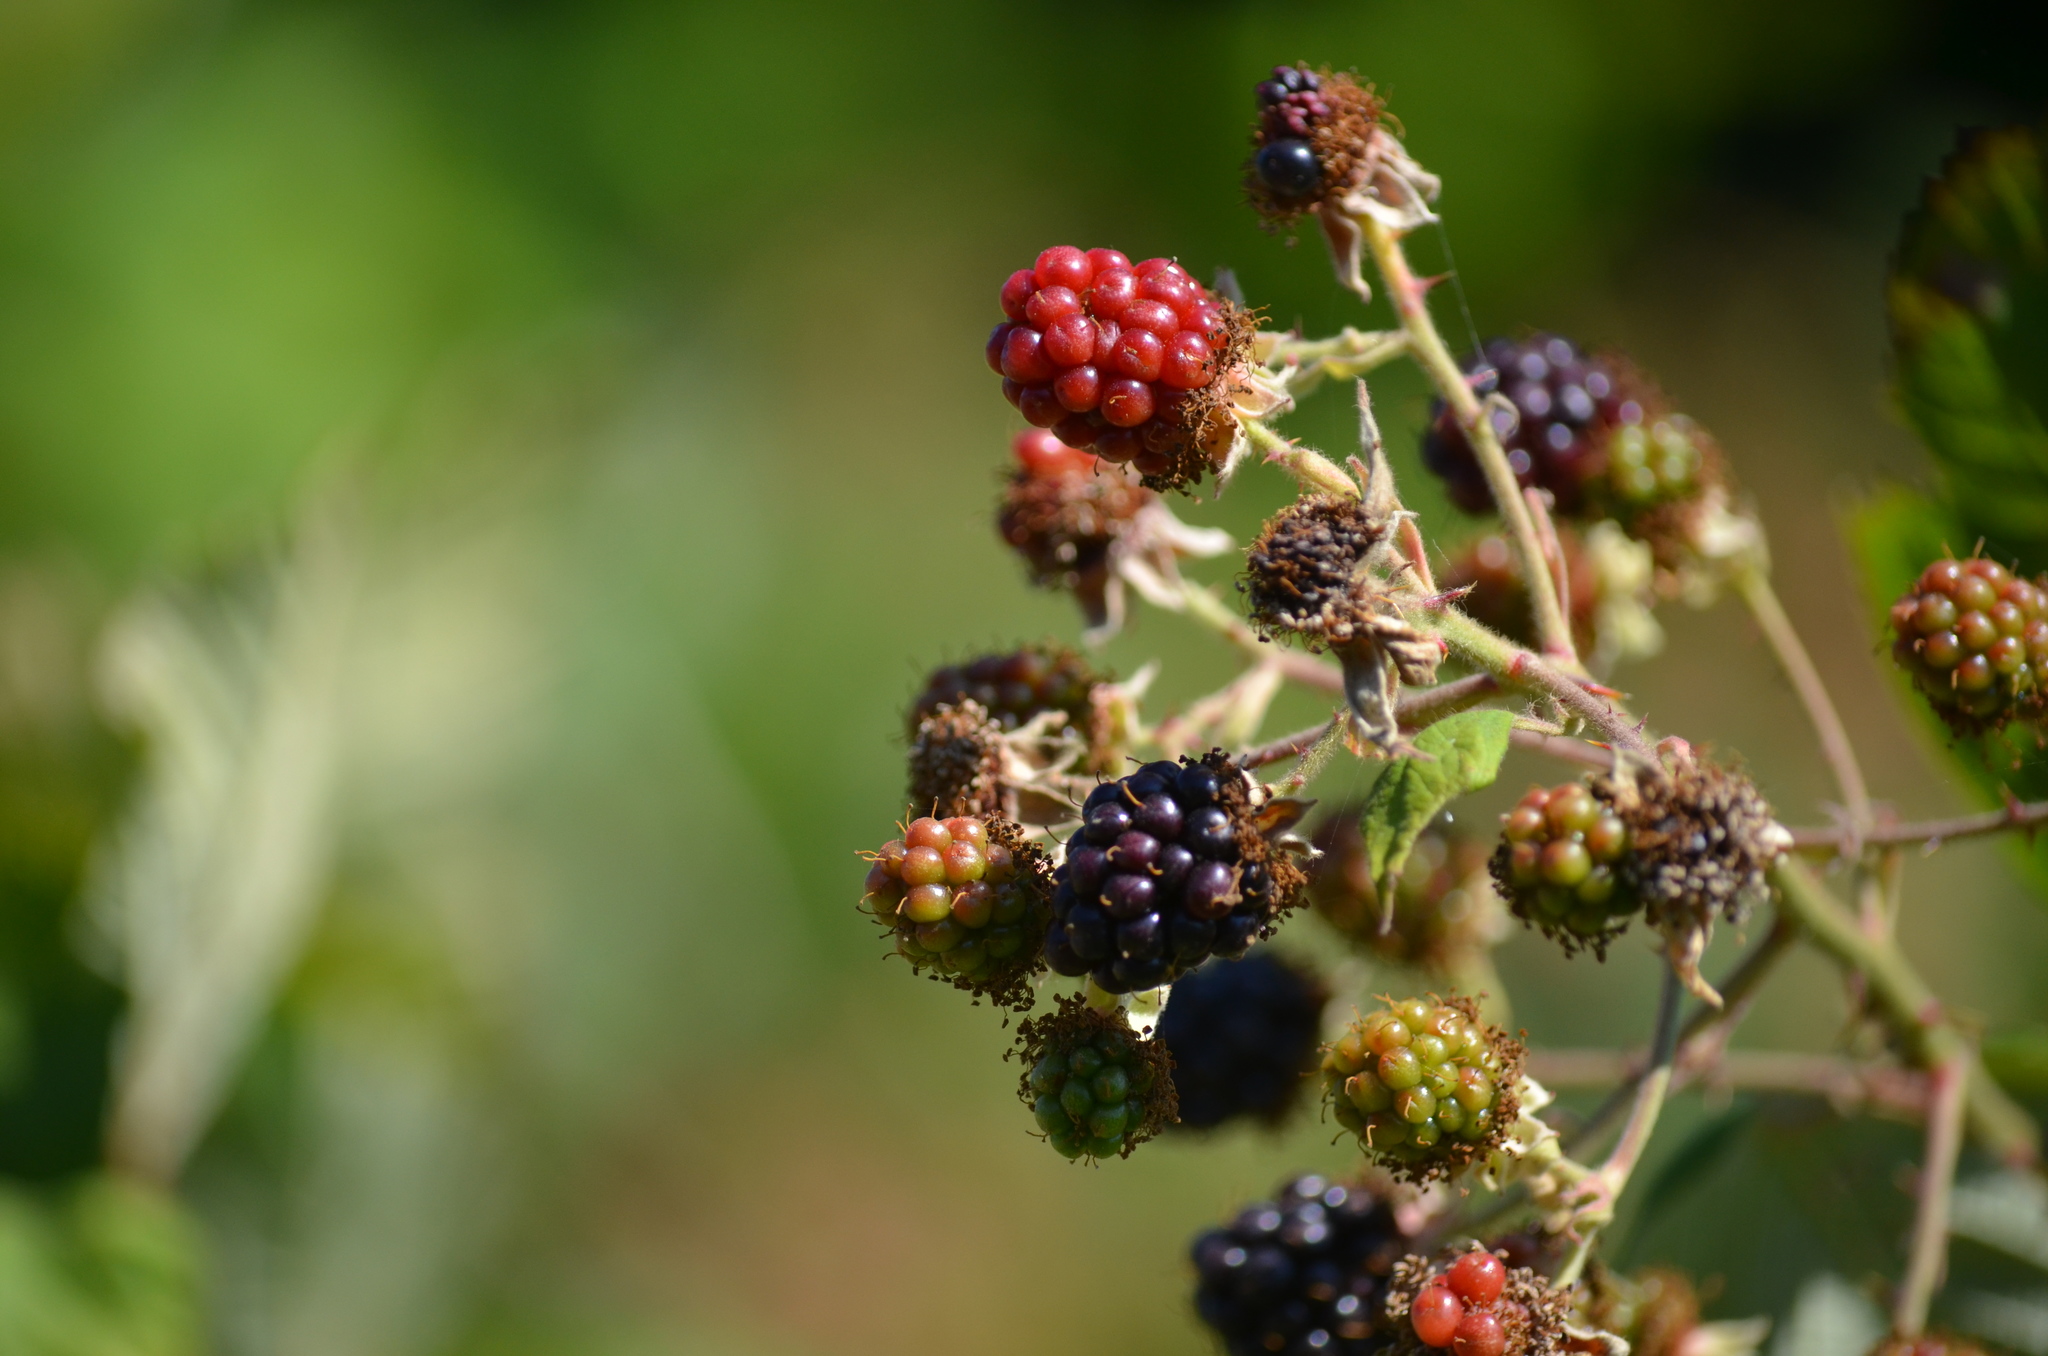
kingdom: Plantae
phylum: Tracheophyta
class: Magnoliopsida
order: Rosales
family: Rosaceae
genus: Rubus
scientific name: Rubus armeniacus
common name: Himalayan blackberry
